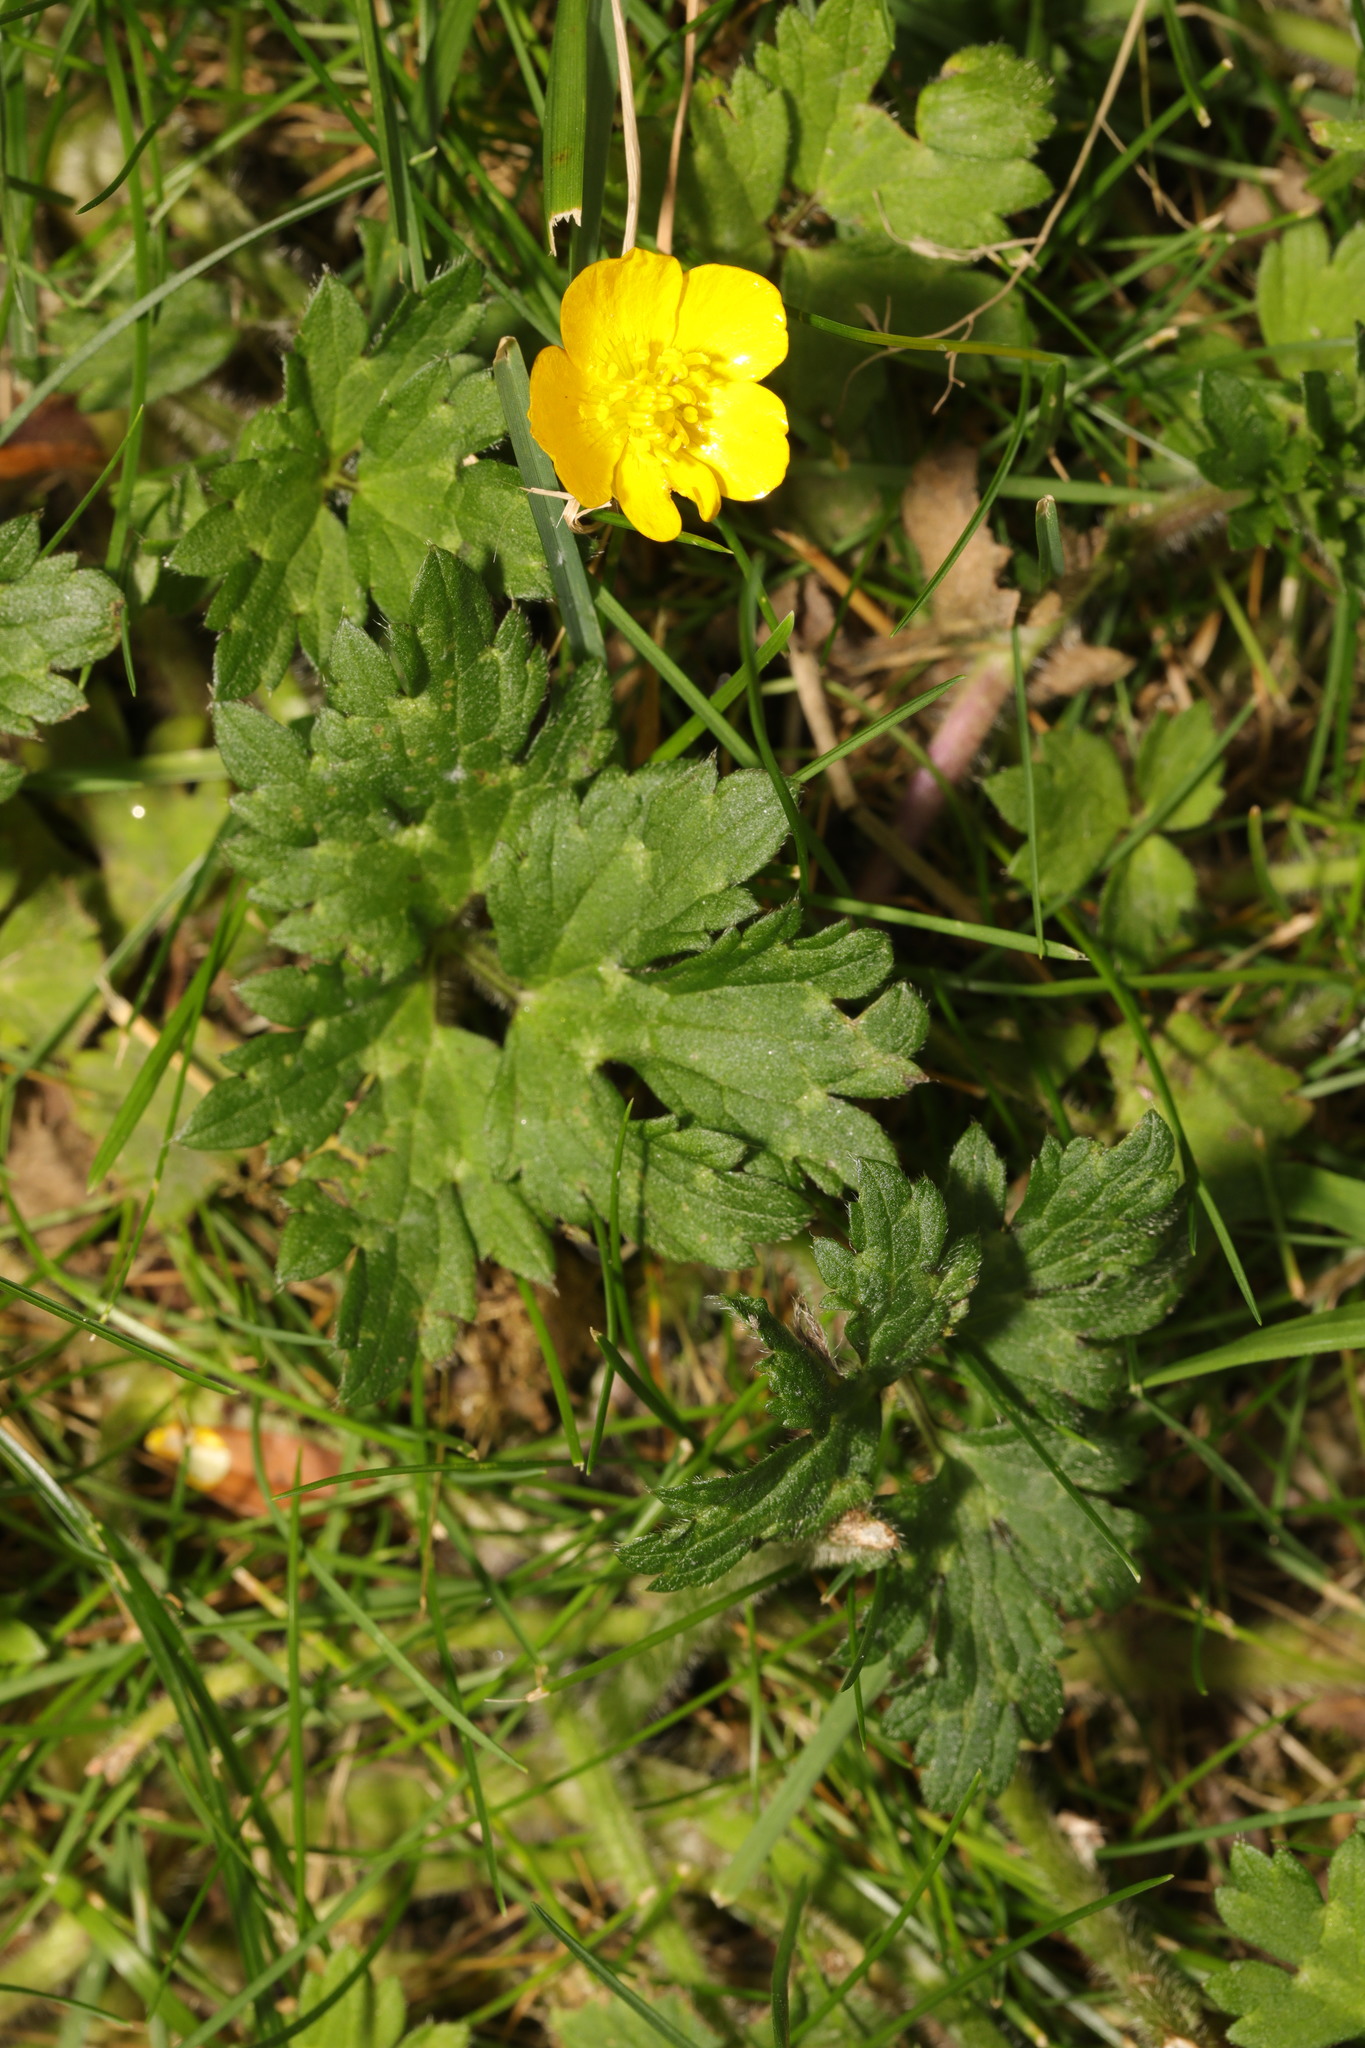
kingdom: Plantae
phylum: Tracheophyta
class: Magnoliopsida
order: Ranunculales
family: Ranunculaceae
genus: Ranunculus
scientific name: Ranunculus repens
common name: Creeping buttercup
